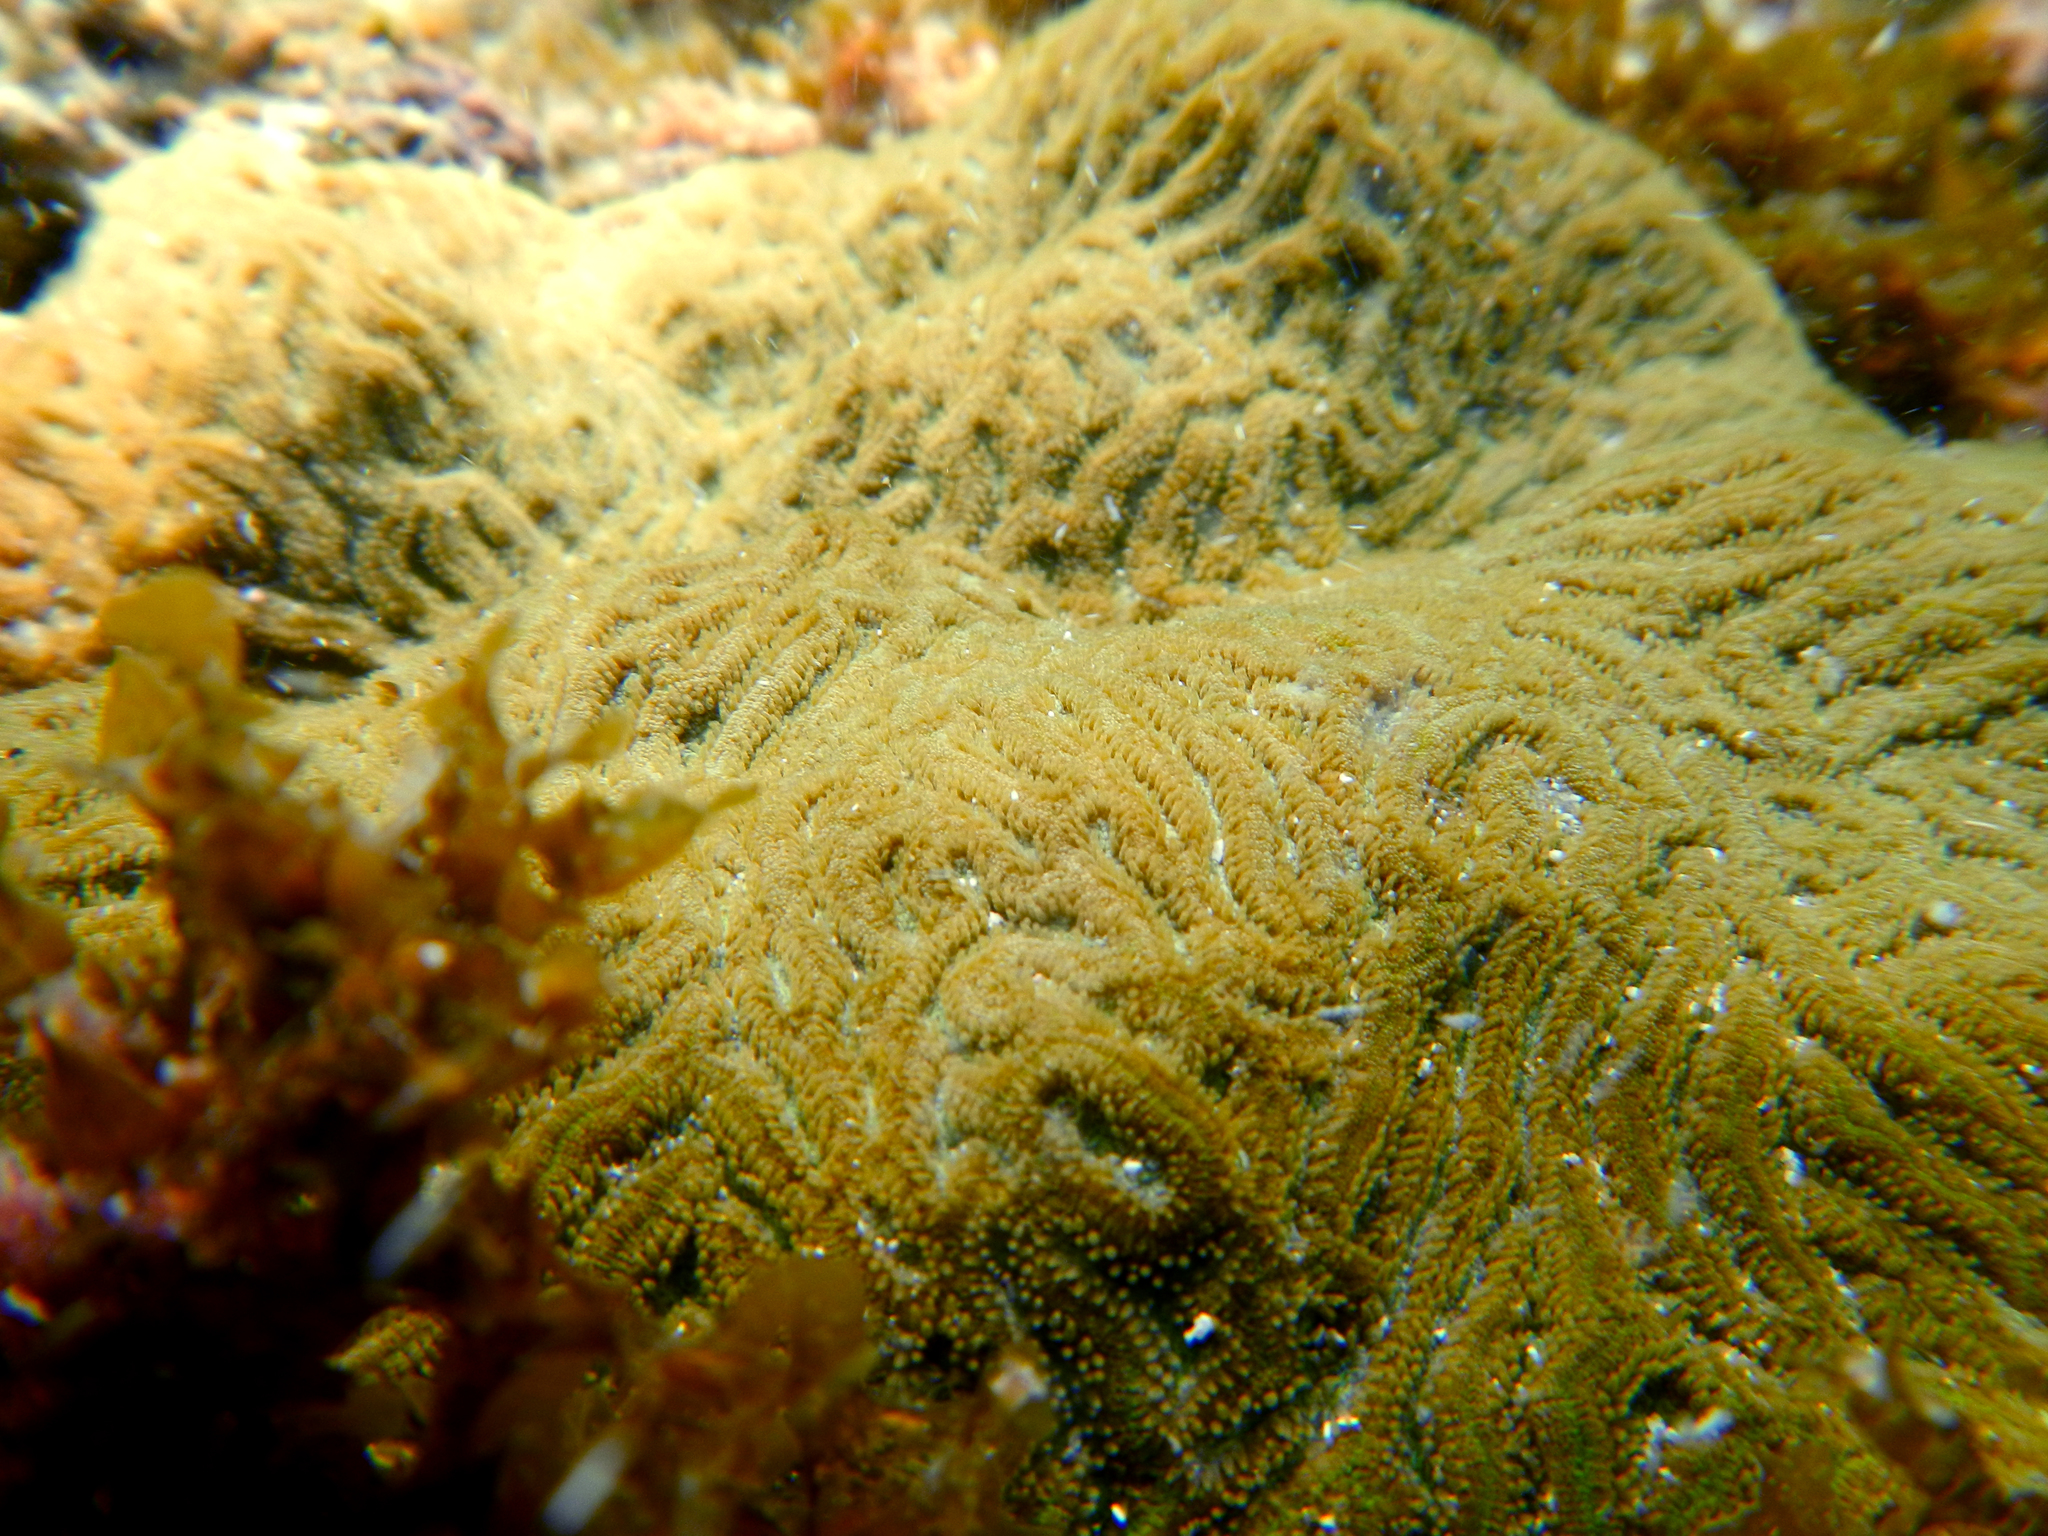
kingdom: Animalia
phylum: Cnidaria
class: Anthozoa
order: Scleractinia
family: Faviidae
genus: Pseudodiploria
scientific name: Pseudodiploria clivosa
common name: Knobby brain coral
